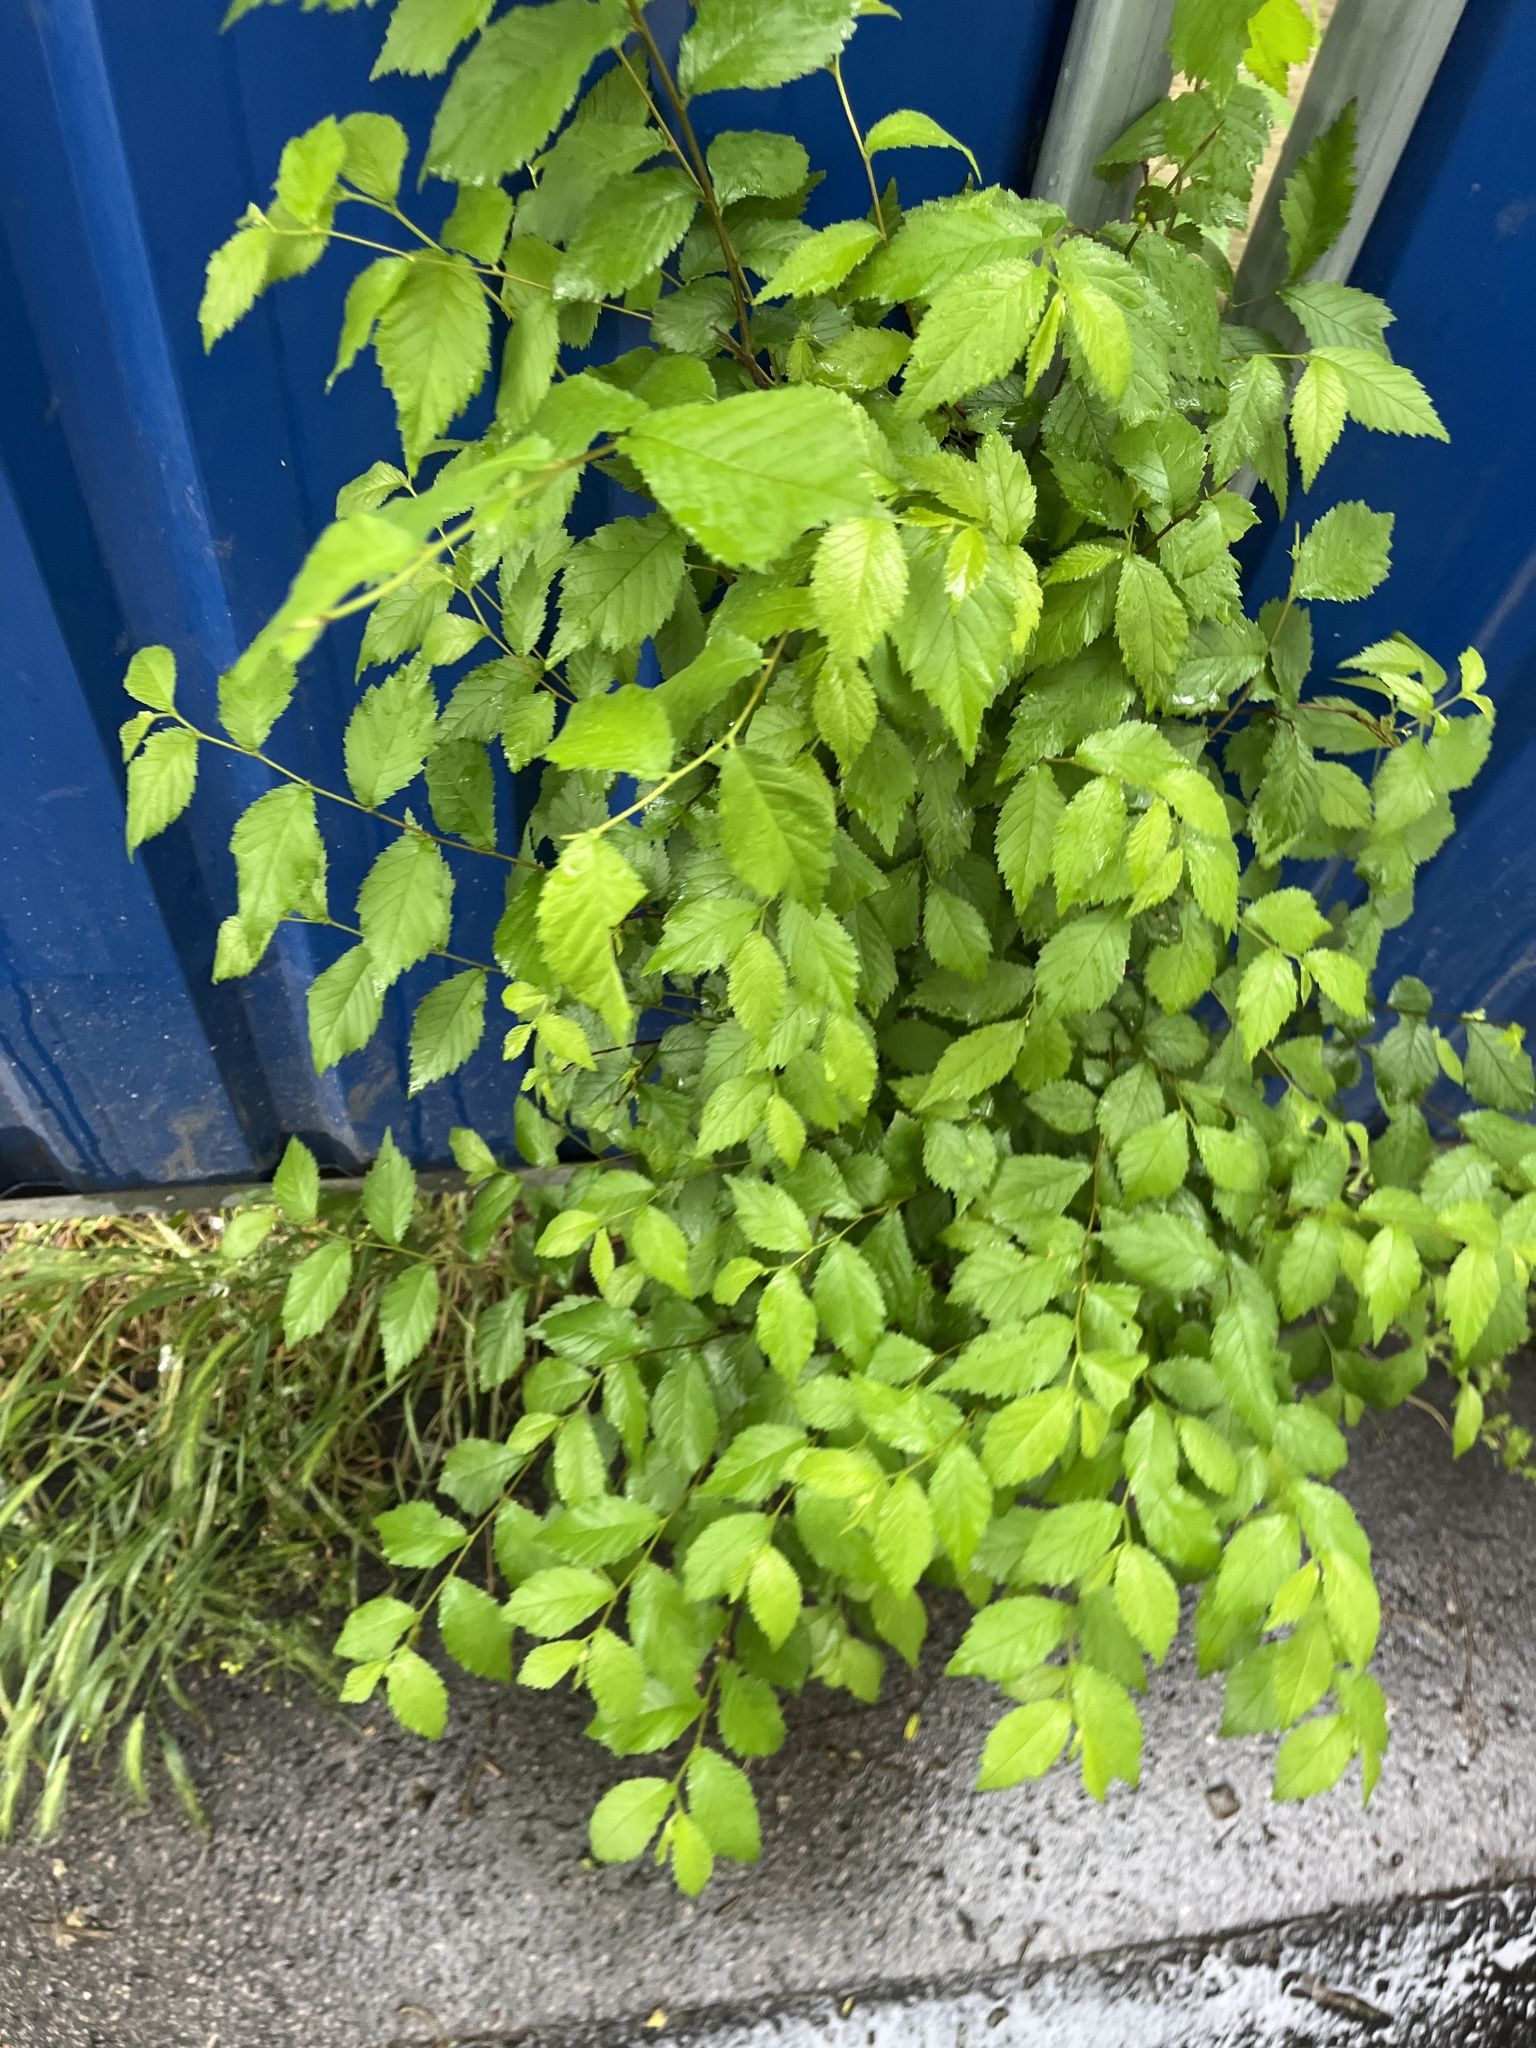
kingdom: Plantae
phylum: Tracheophyta
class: Magnoliopsida
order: Rosales
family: Ulmaceae
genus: Ulmus
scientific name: Ulmus minor
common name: Small-leaved elm
